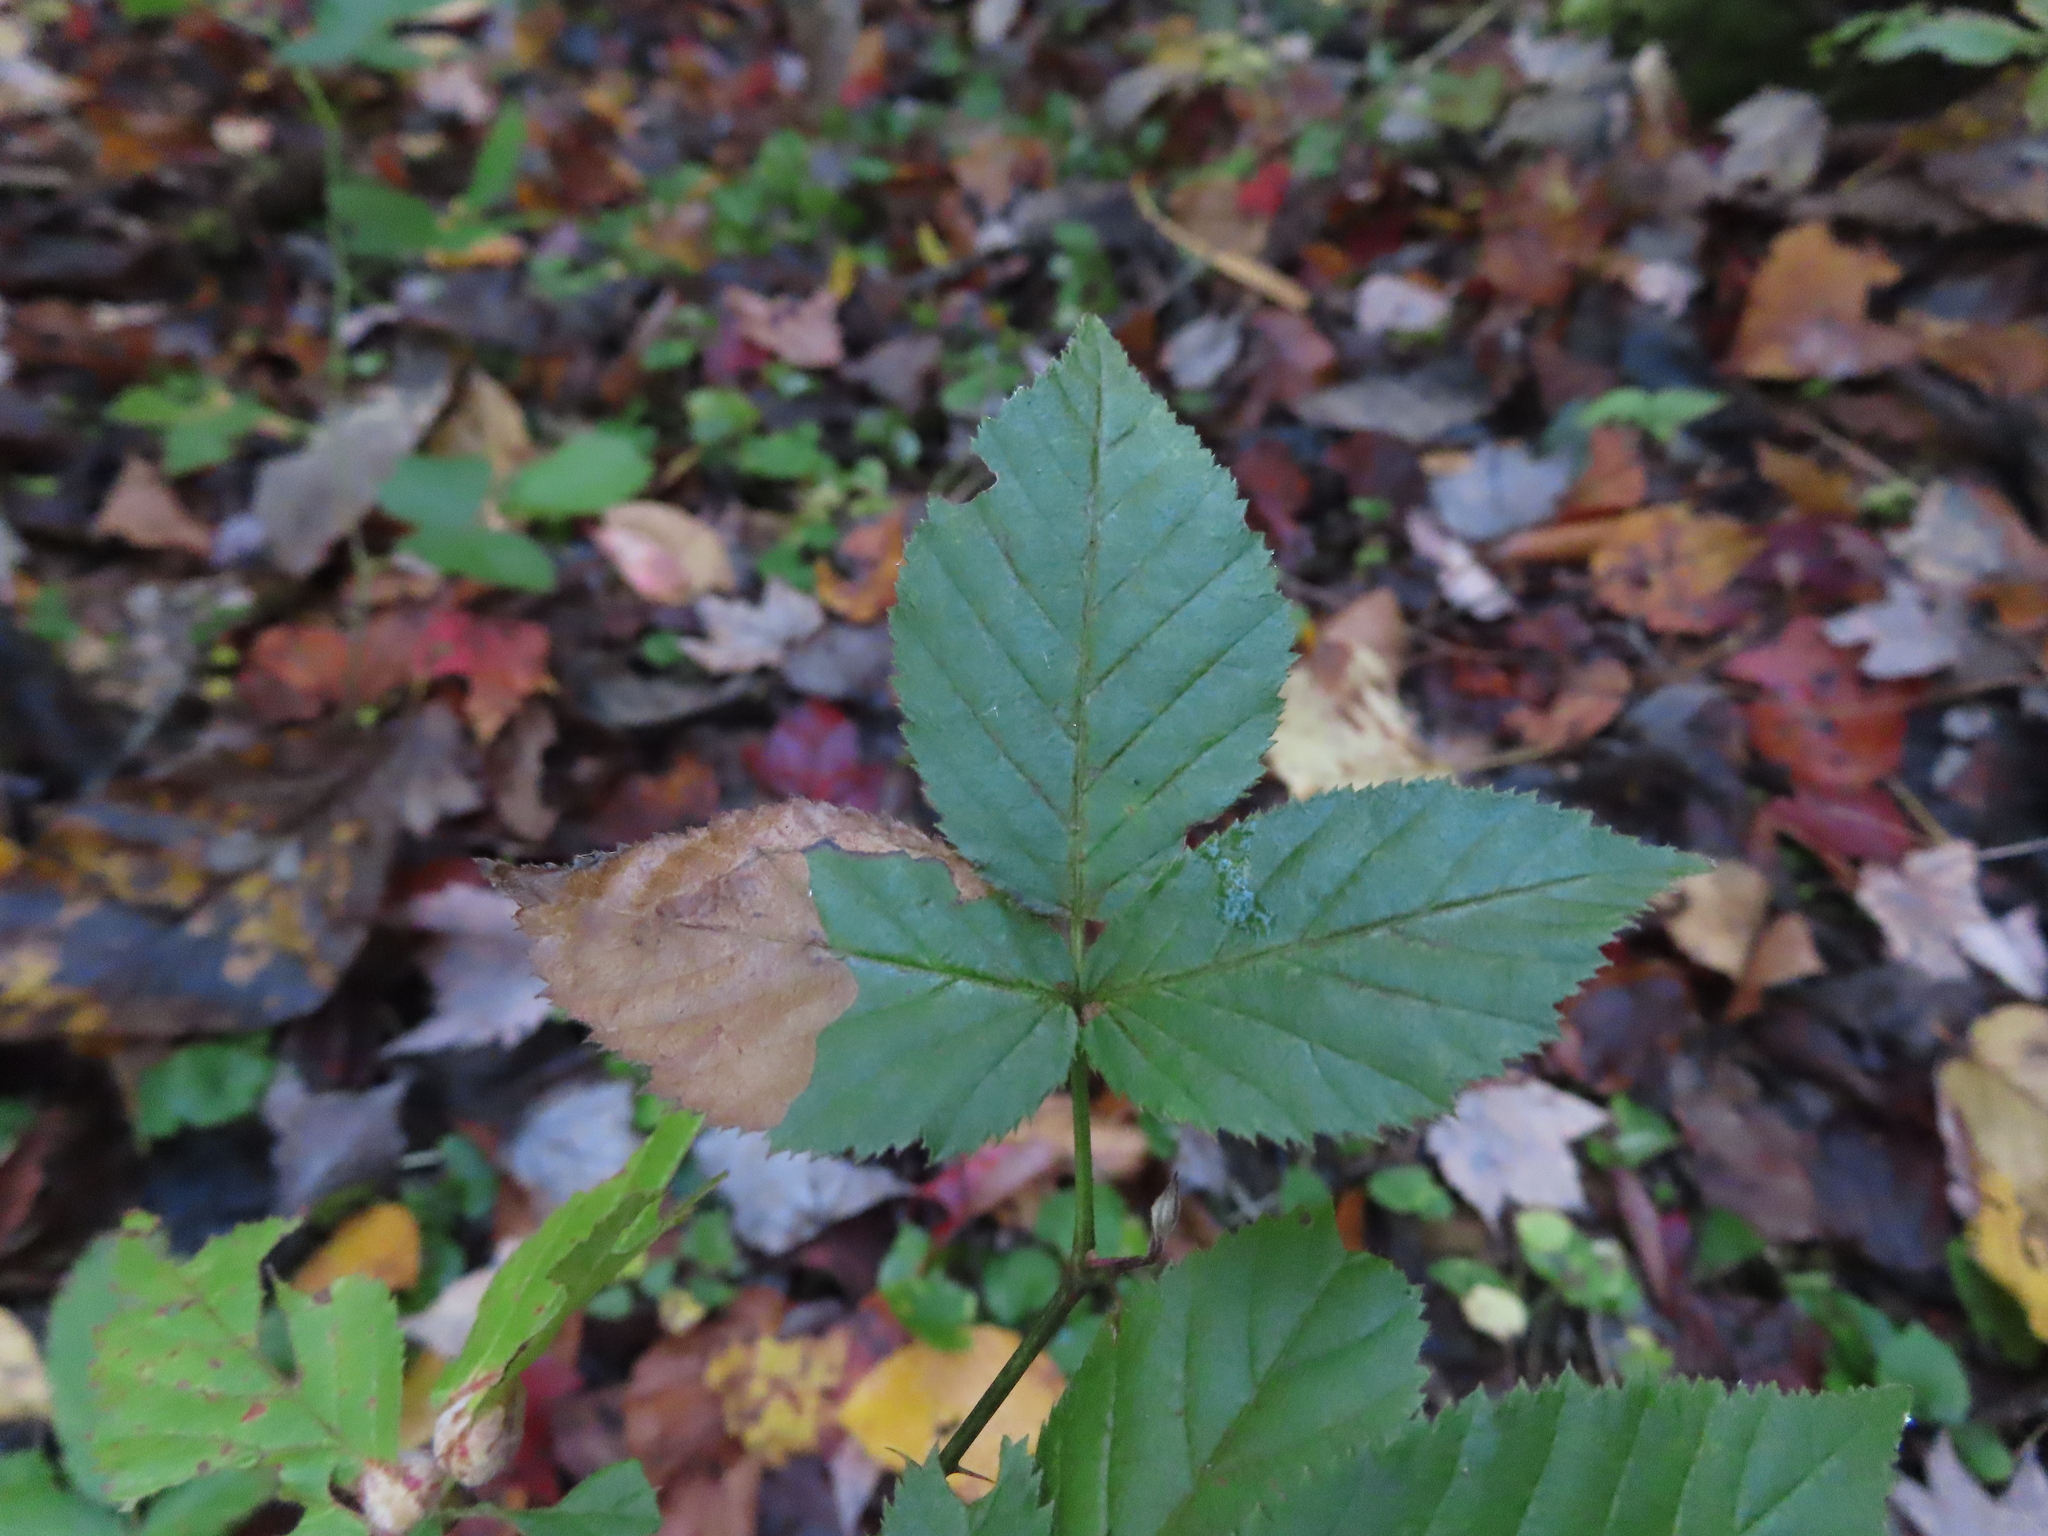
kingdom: Animalia
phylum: Arthropoda
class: Insecta
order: Hymenoptera
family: Tenthredinidae
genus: Metallus
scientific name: Metallus rohweri
